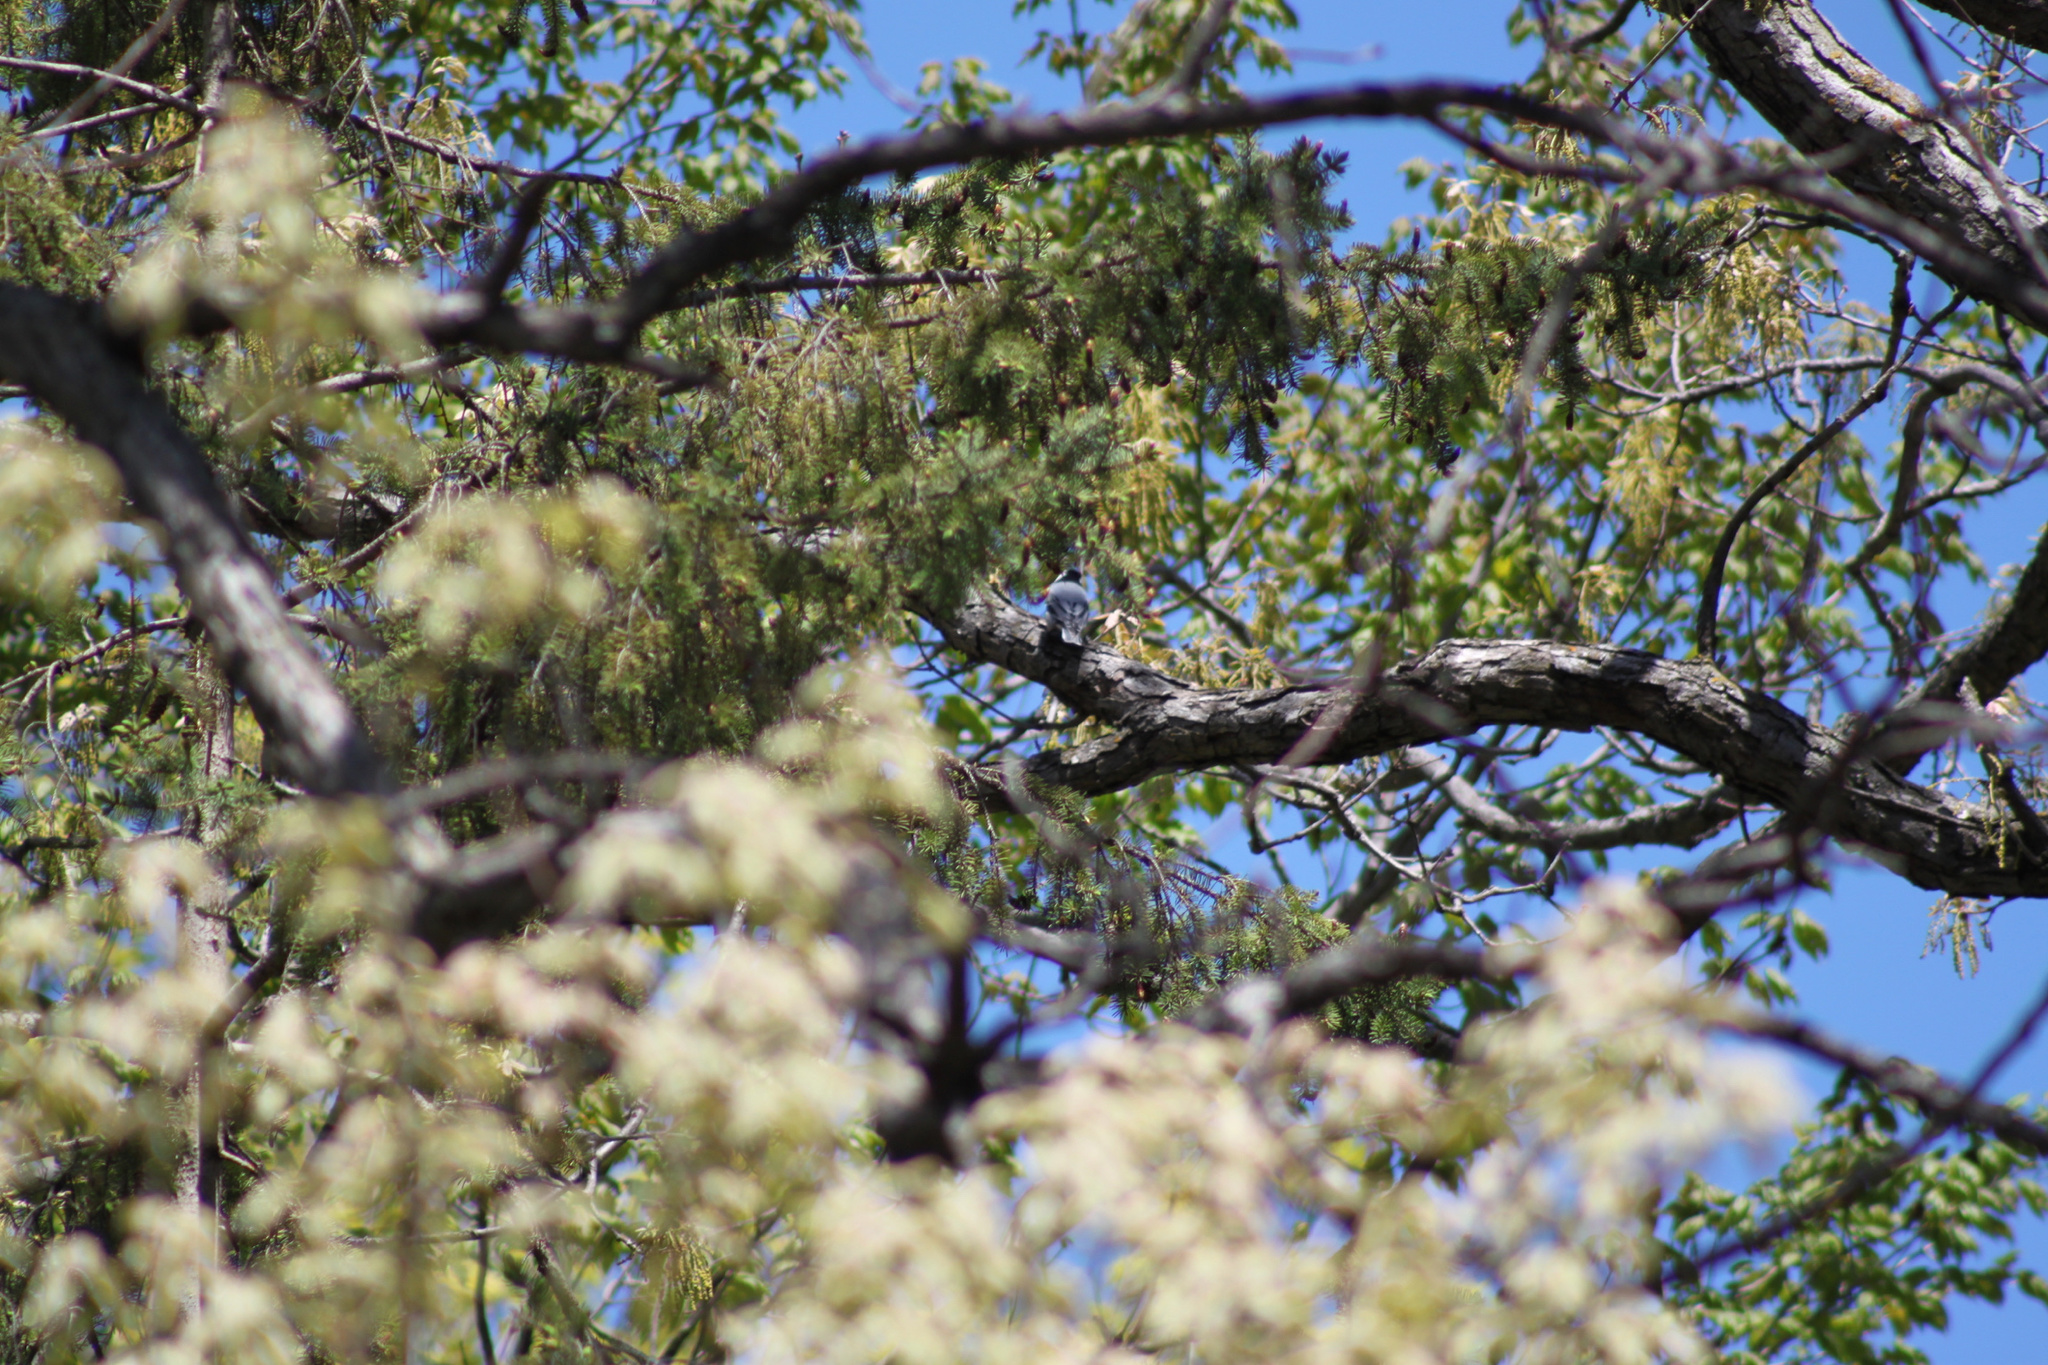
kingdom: Animalia
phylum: Chordata
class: Aves
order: Passeriformes
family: Sittidae
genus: Sitta
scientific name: Sitta carolinensis
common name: White-breasted nuthatch
